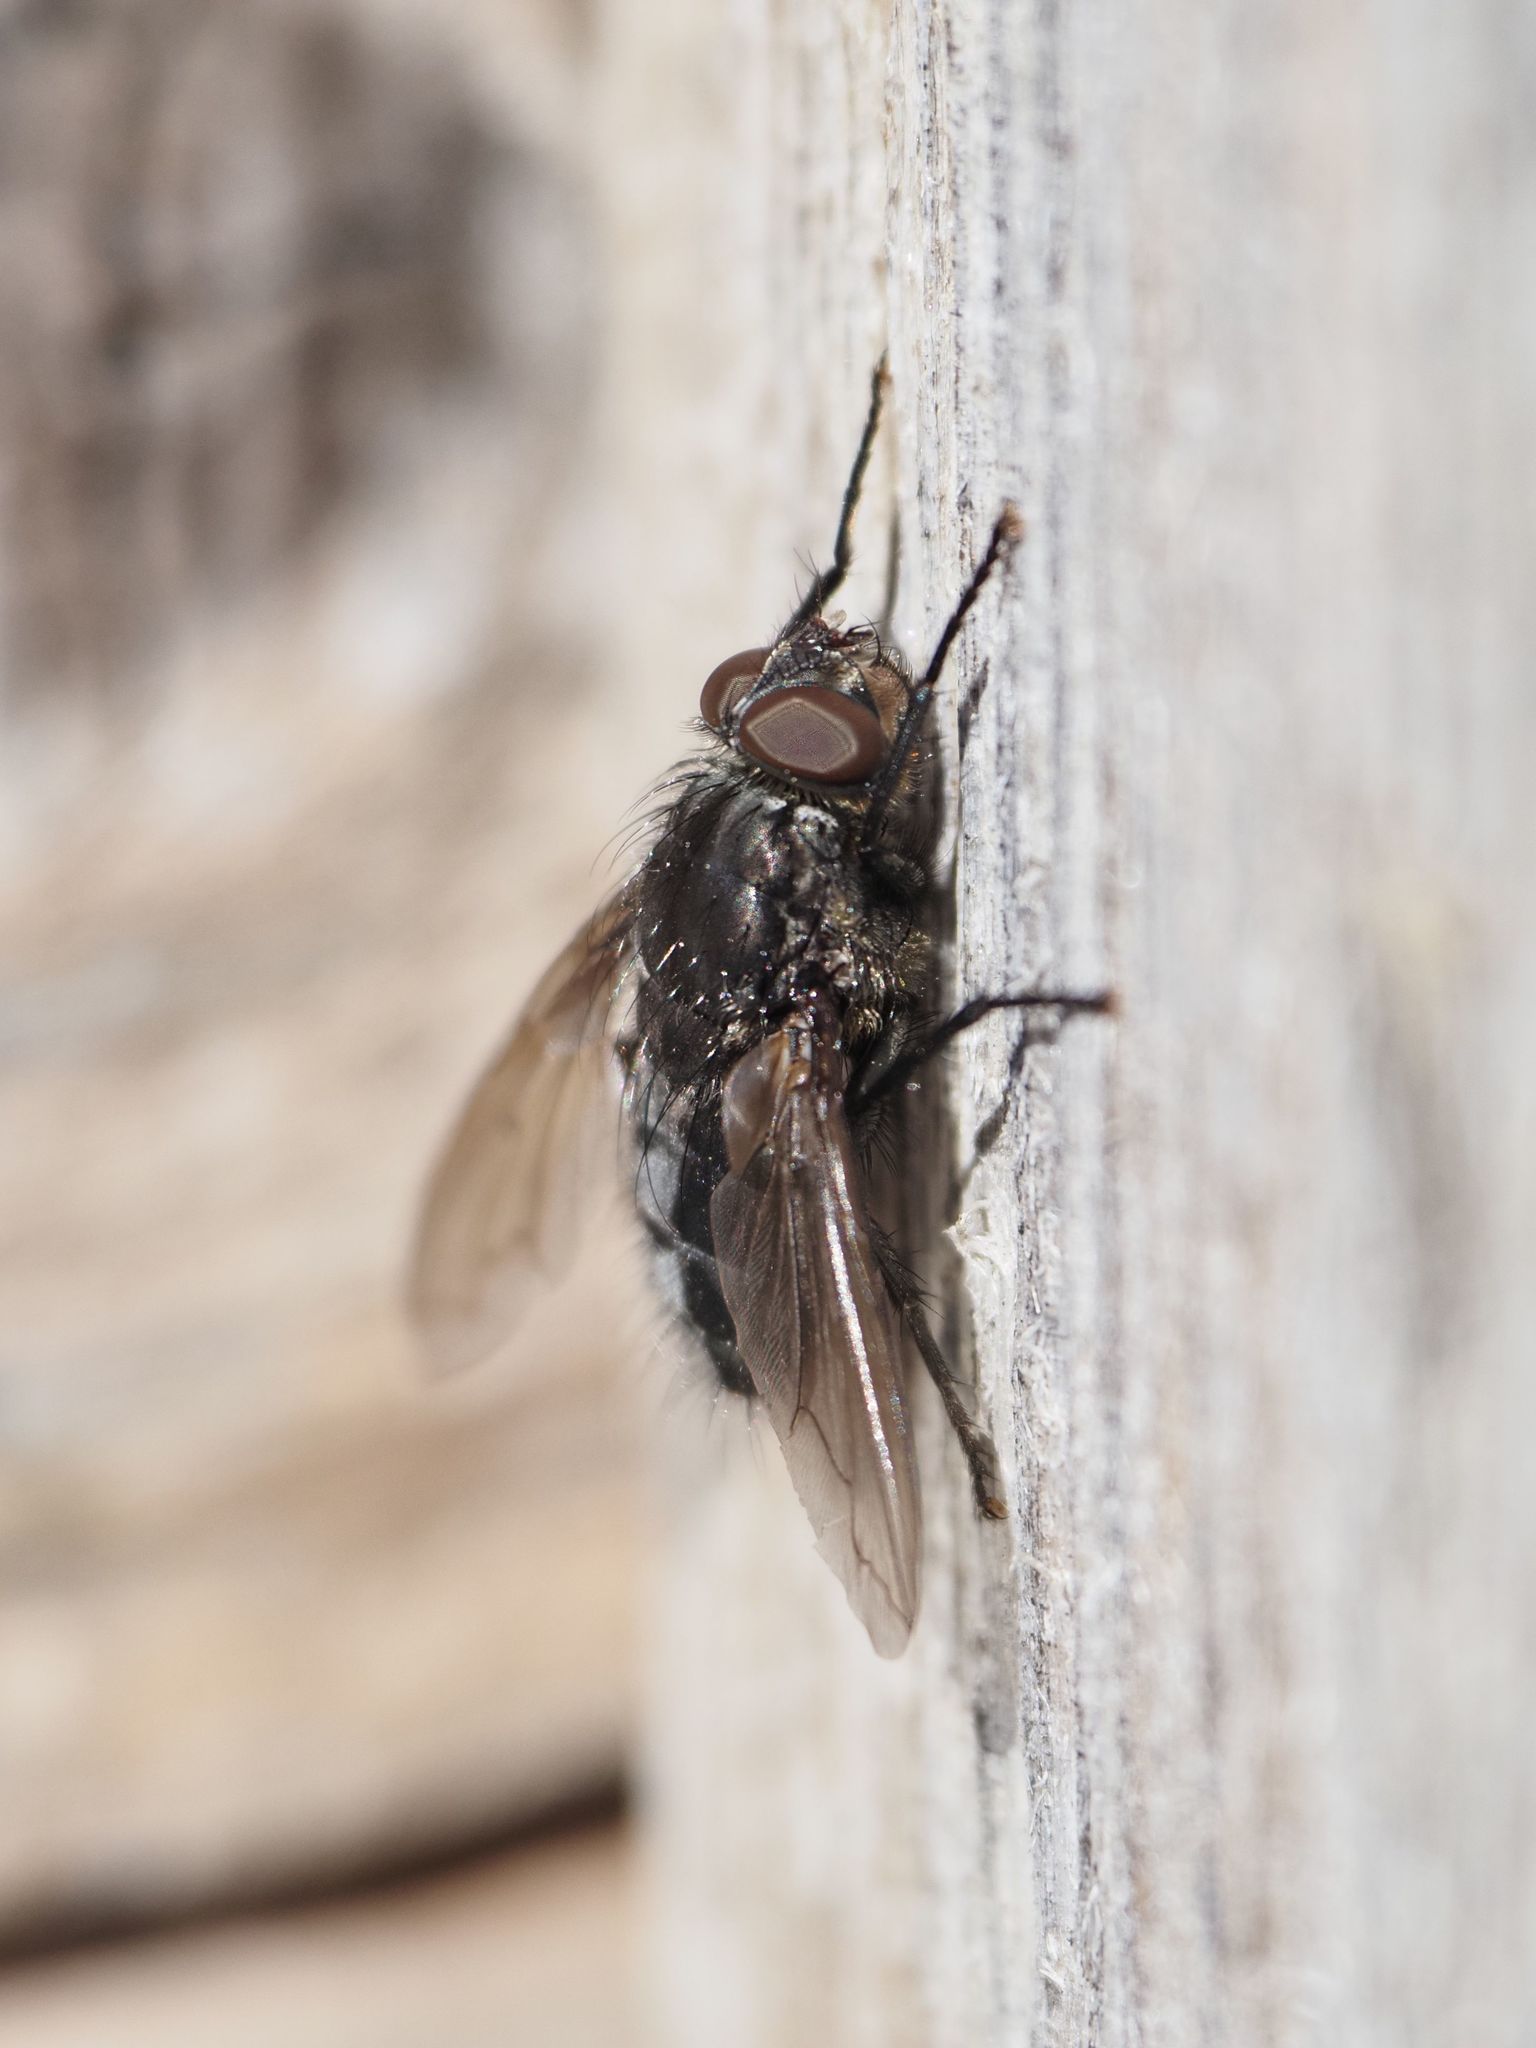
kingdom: Animalia
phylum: Arthropoda
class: Insecta
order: Diptera
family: Polleniidae
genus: Pollenia
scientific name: Pollenia vagabunda
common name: Vagabund cluster fly
